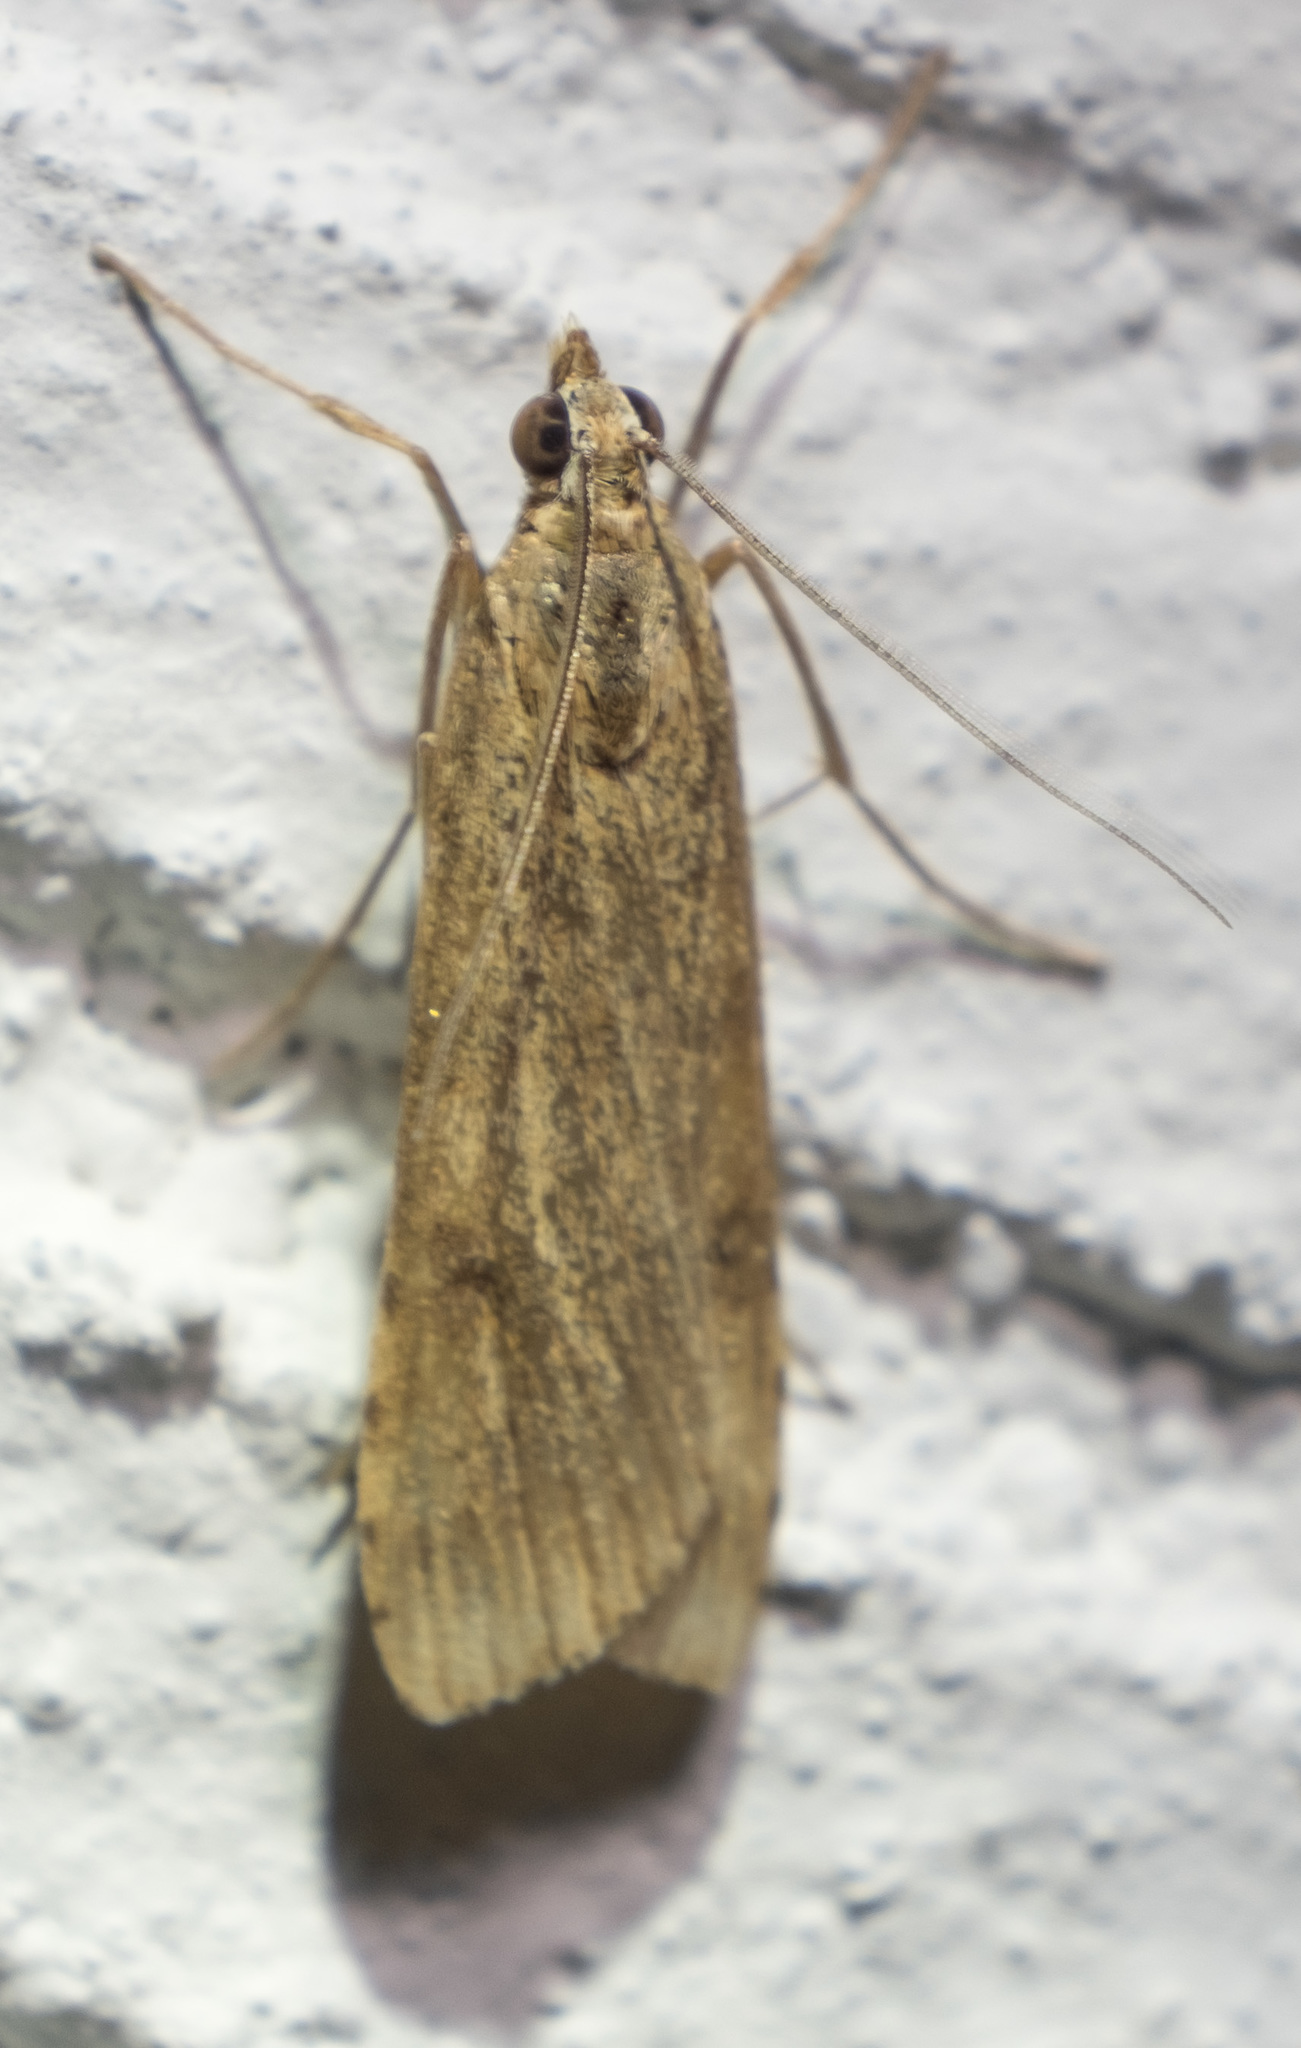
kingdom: Animalia
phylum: Arthropoda
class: Insecta
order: Lepidoptera
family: Crambidae
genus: Nomophila
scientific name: Nomophila nearctica
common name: American rush veneer
